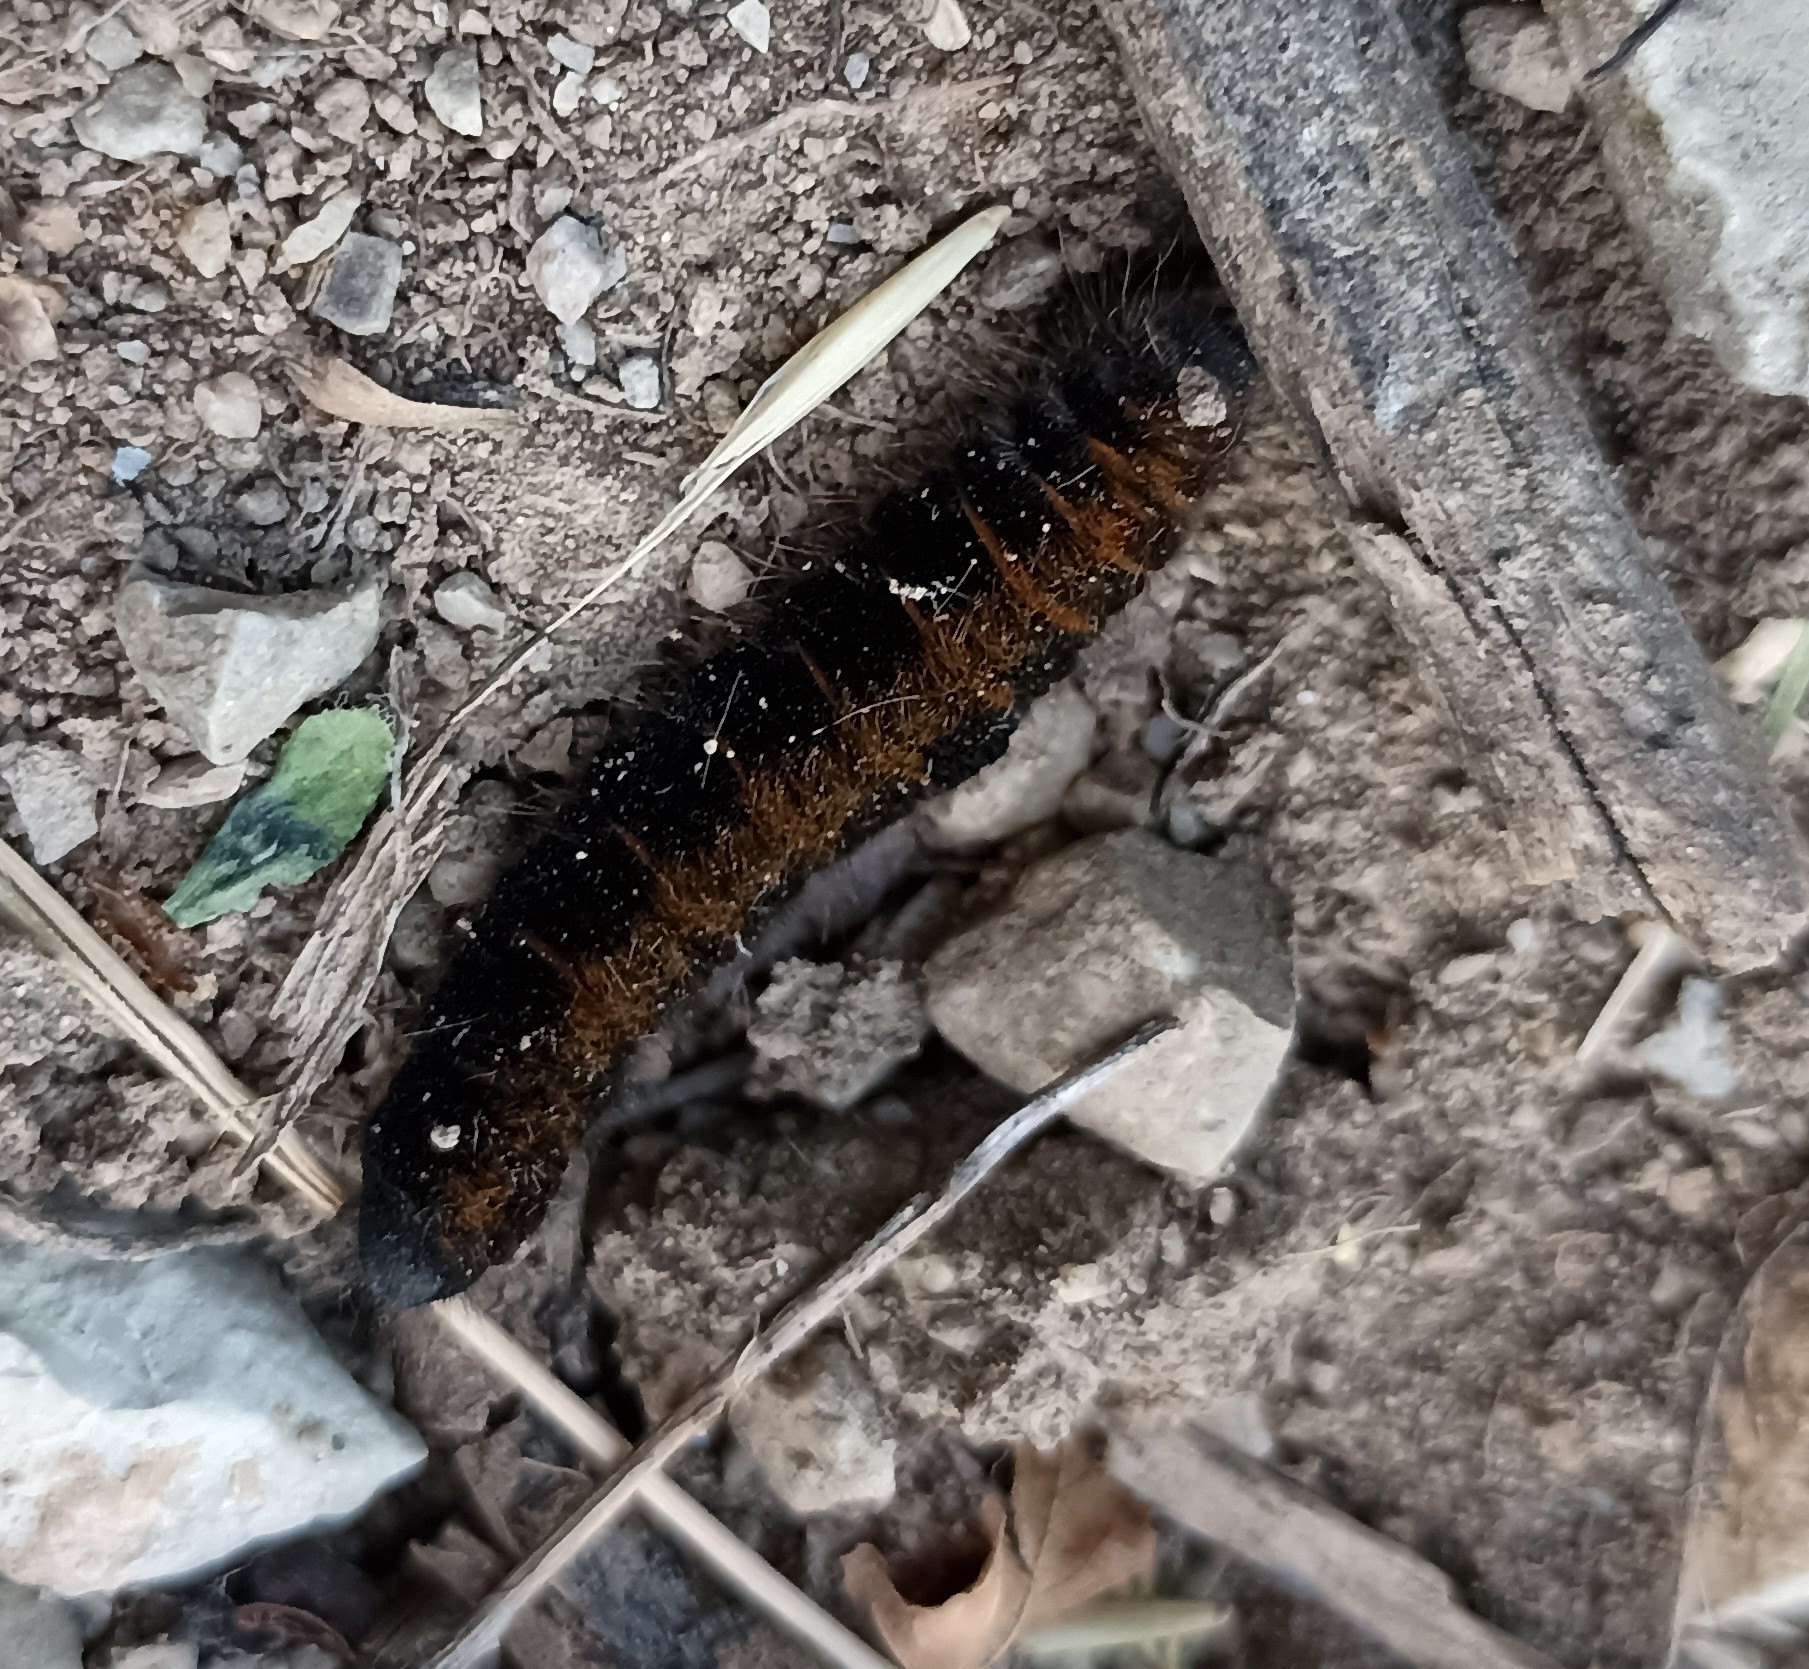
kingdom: Animalia
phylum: Arthropoda
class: Insecta
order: Lepidoptera
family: Lasiocampidae
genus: Macrothylacia
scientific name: Macrothylacia rubi
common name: Fox moth
